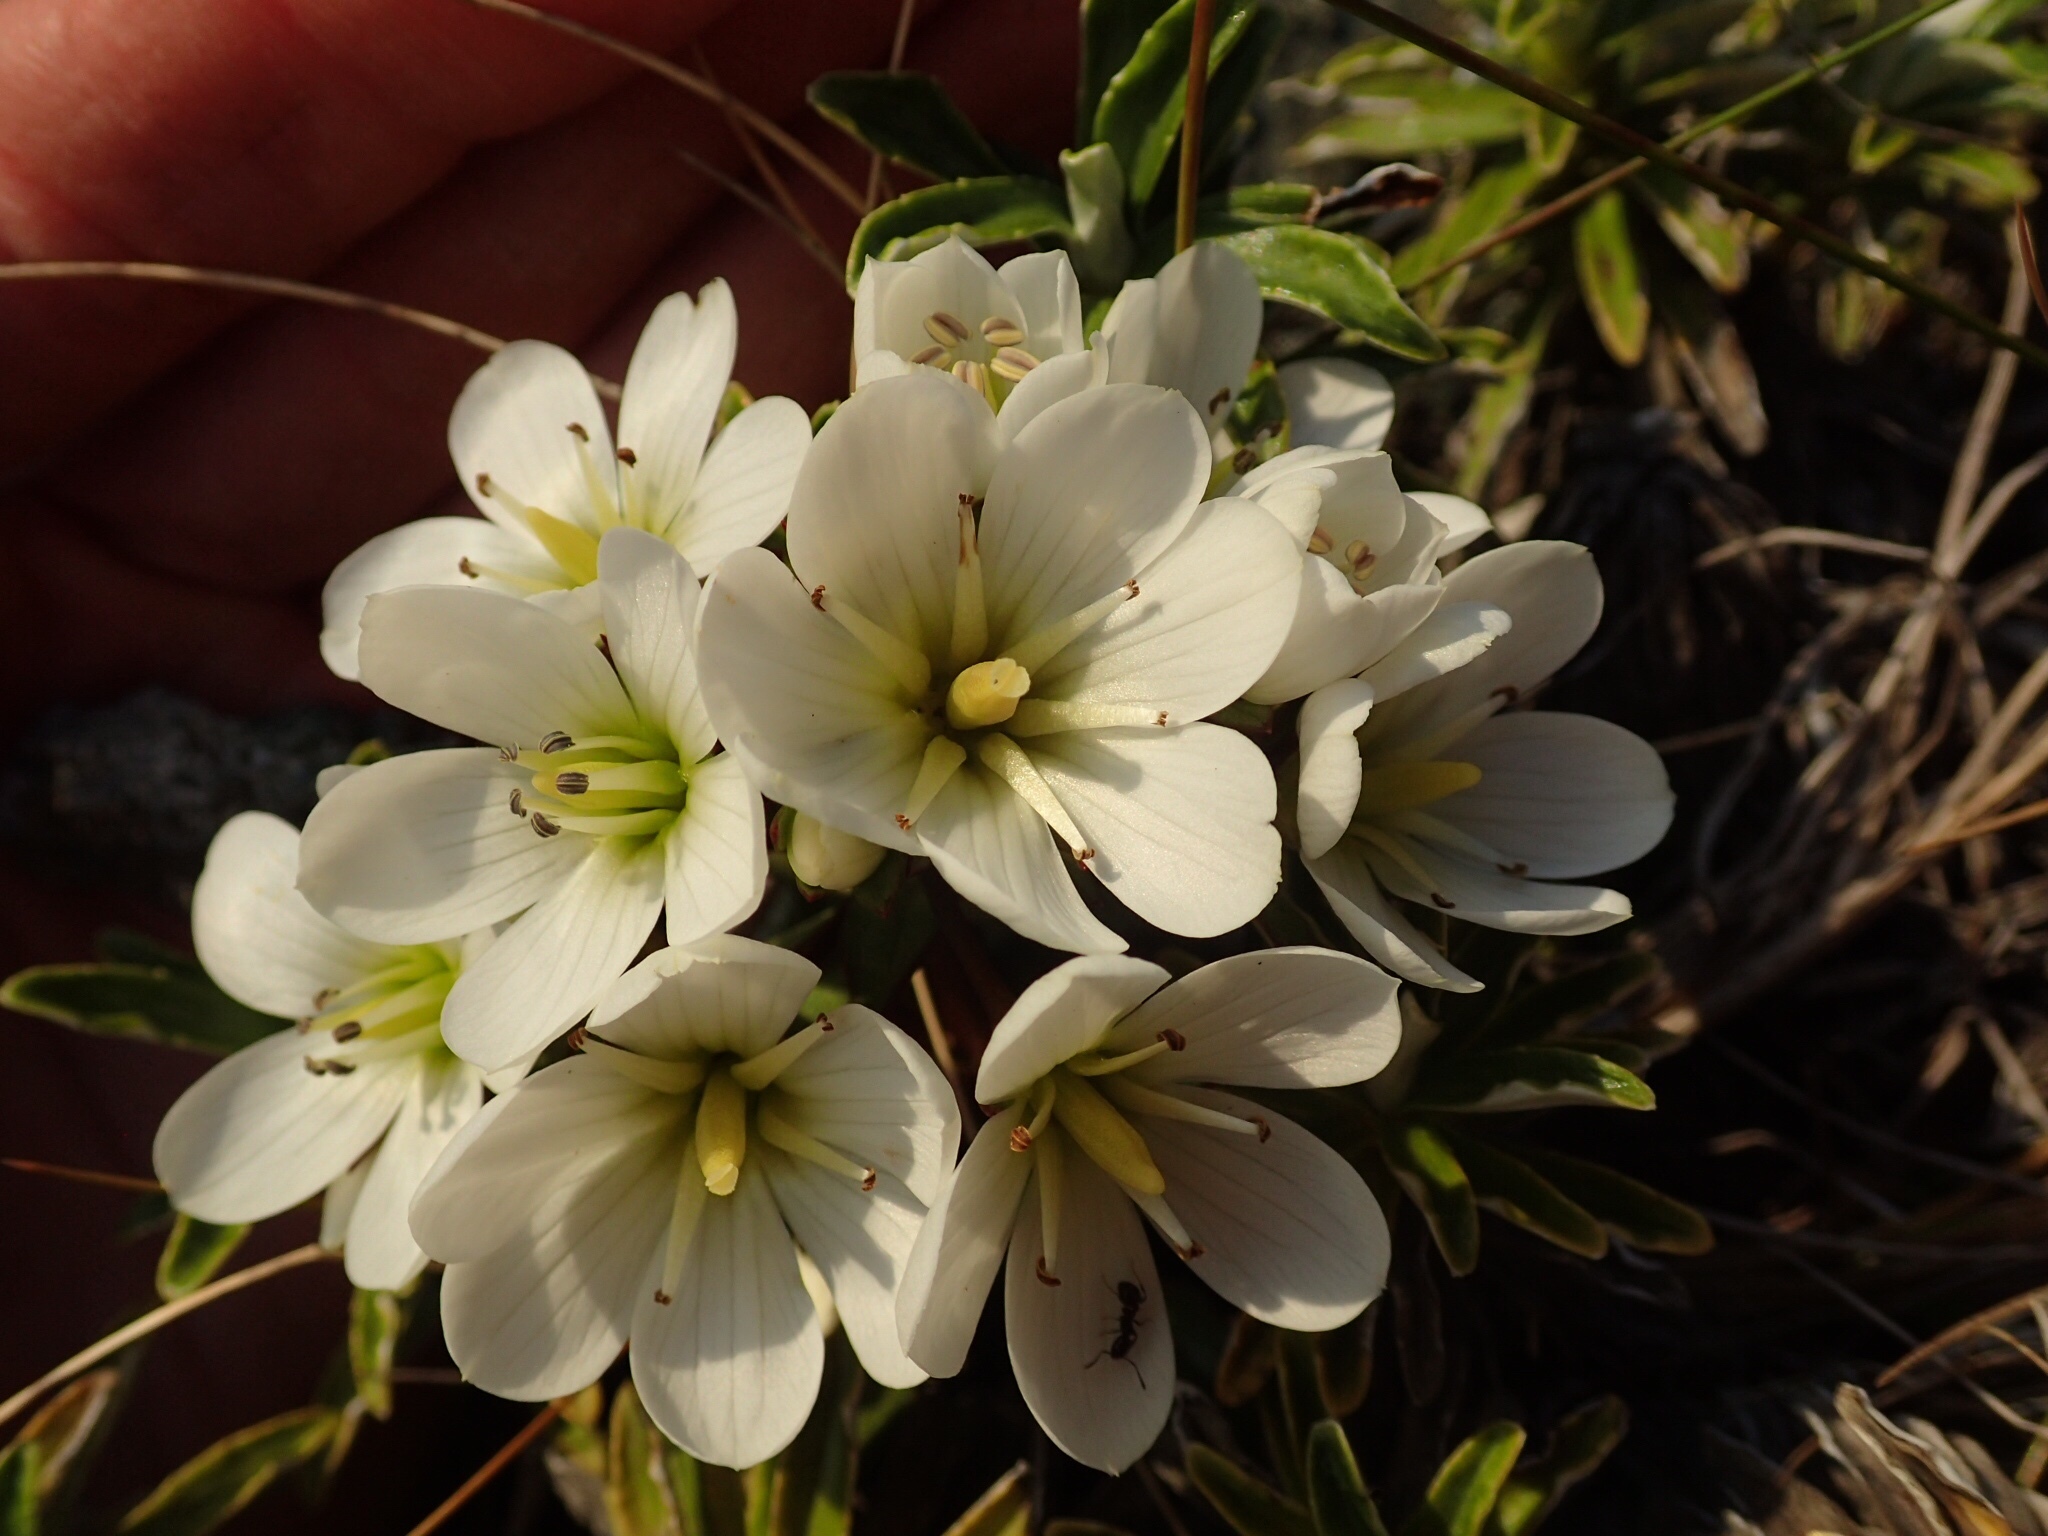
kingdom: Plantae
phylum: Tracheophyta
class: Magnoliopsida
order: Gentianales
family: Gentianaceae
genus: Gentianella
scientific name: Gentianella divisa
